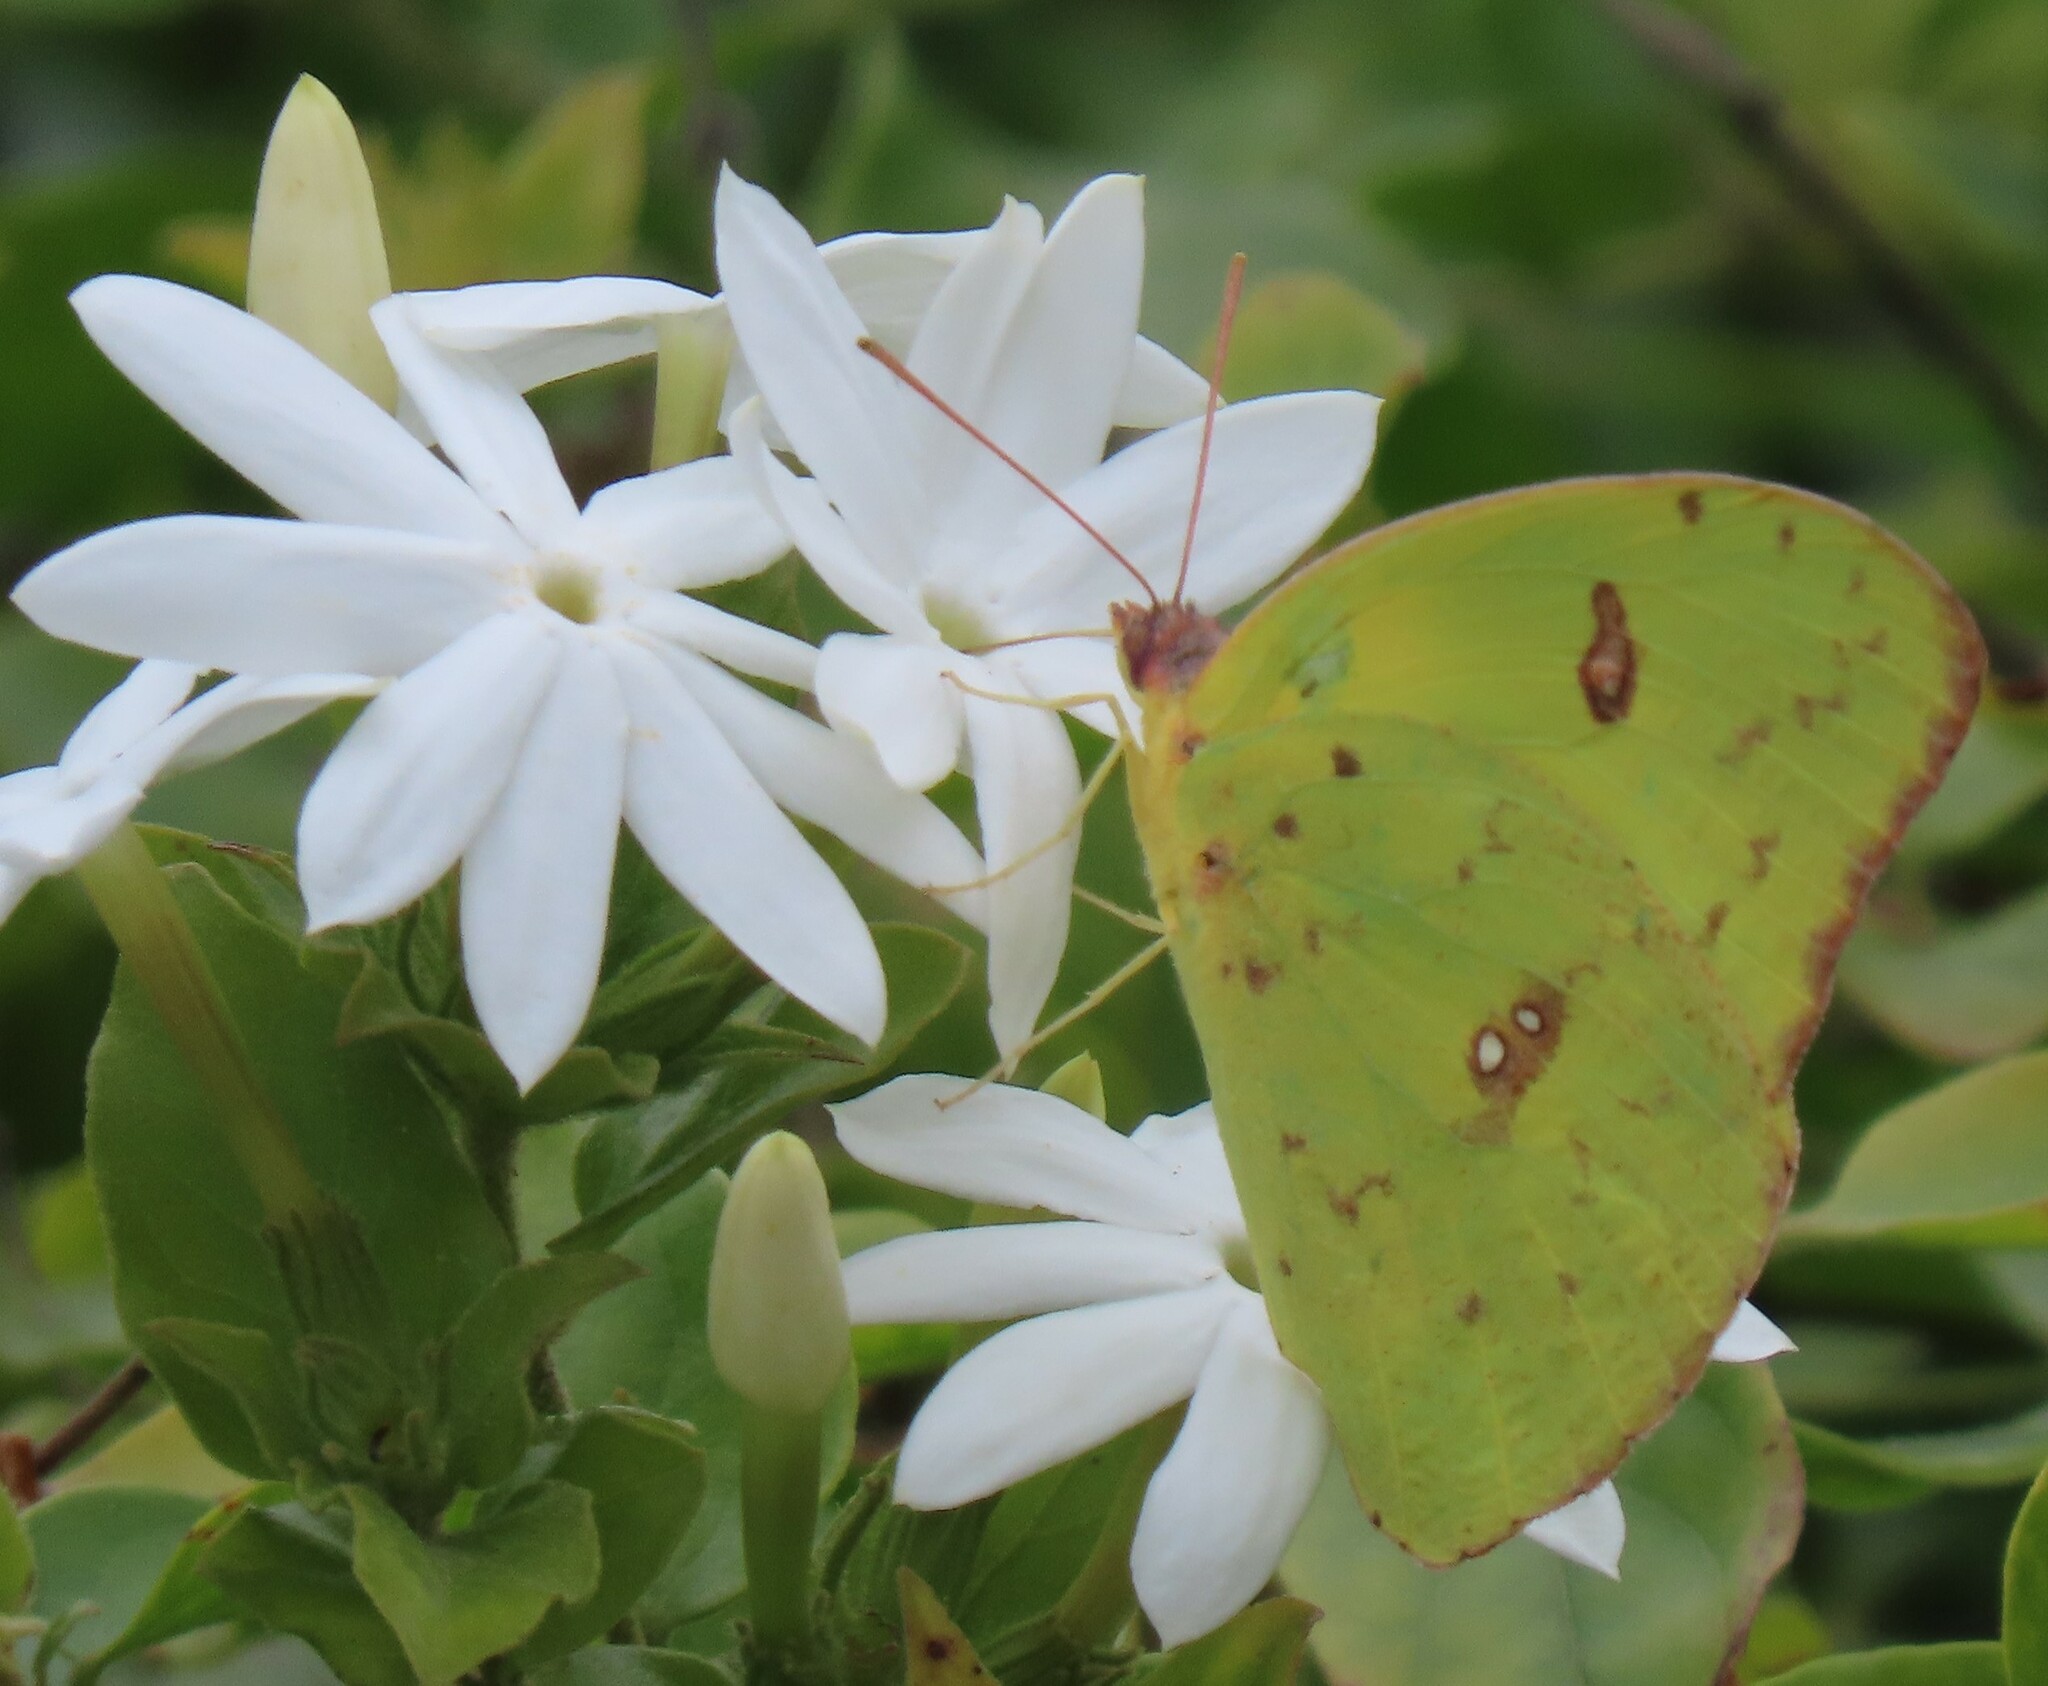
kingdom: Animalia
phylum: Arthropoda
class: Insecta
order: Lepidoptera
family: Pieridae
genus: Phoebis
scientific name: Phoebis sennae
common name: Cloudless sulphur
